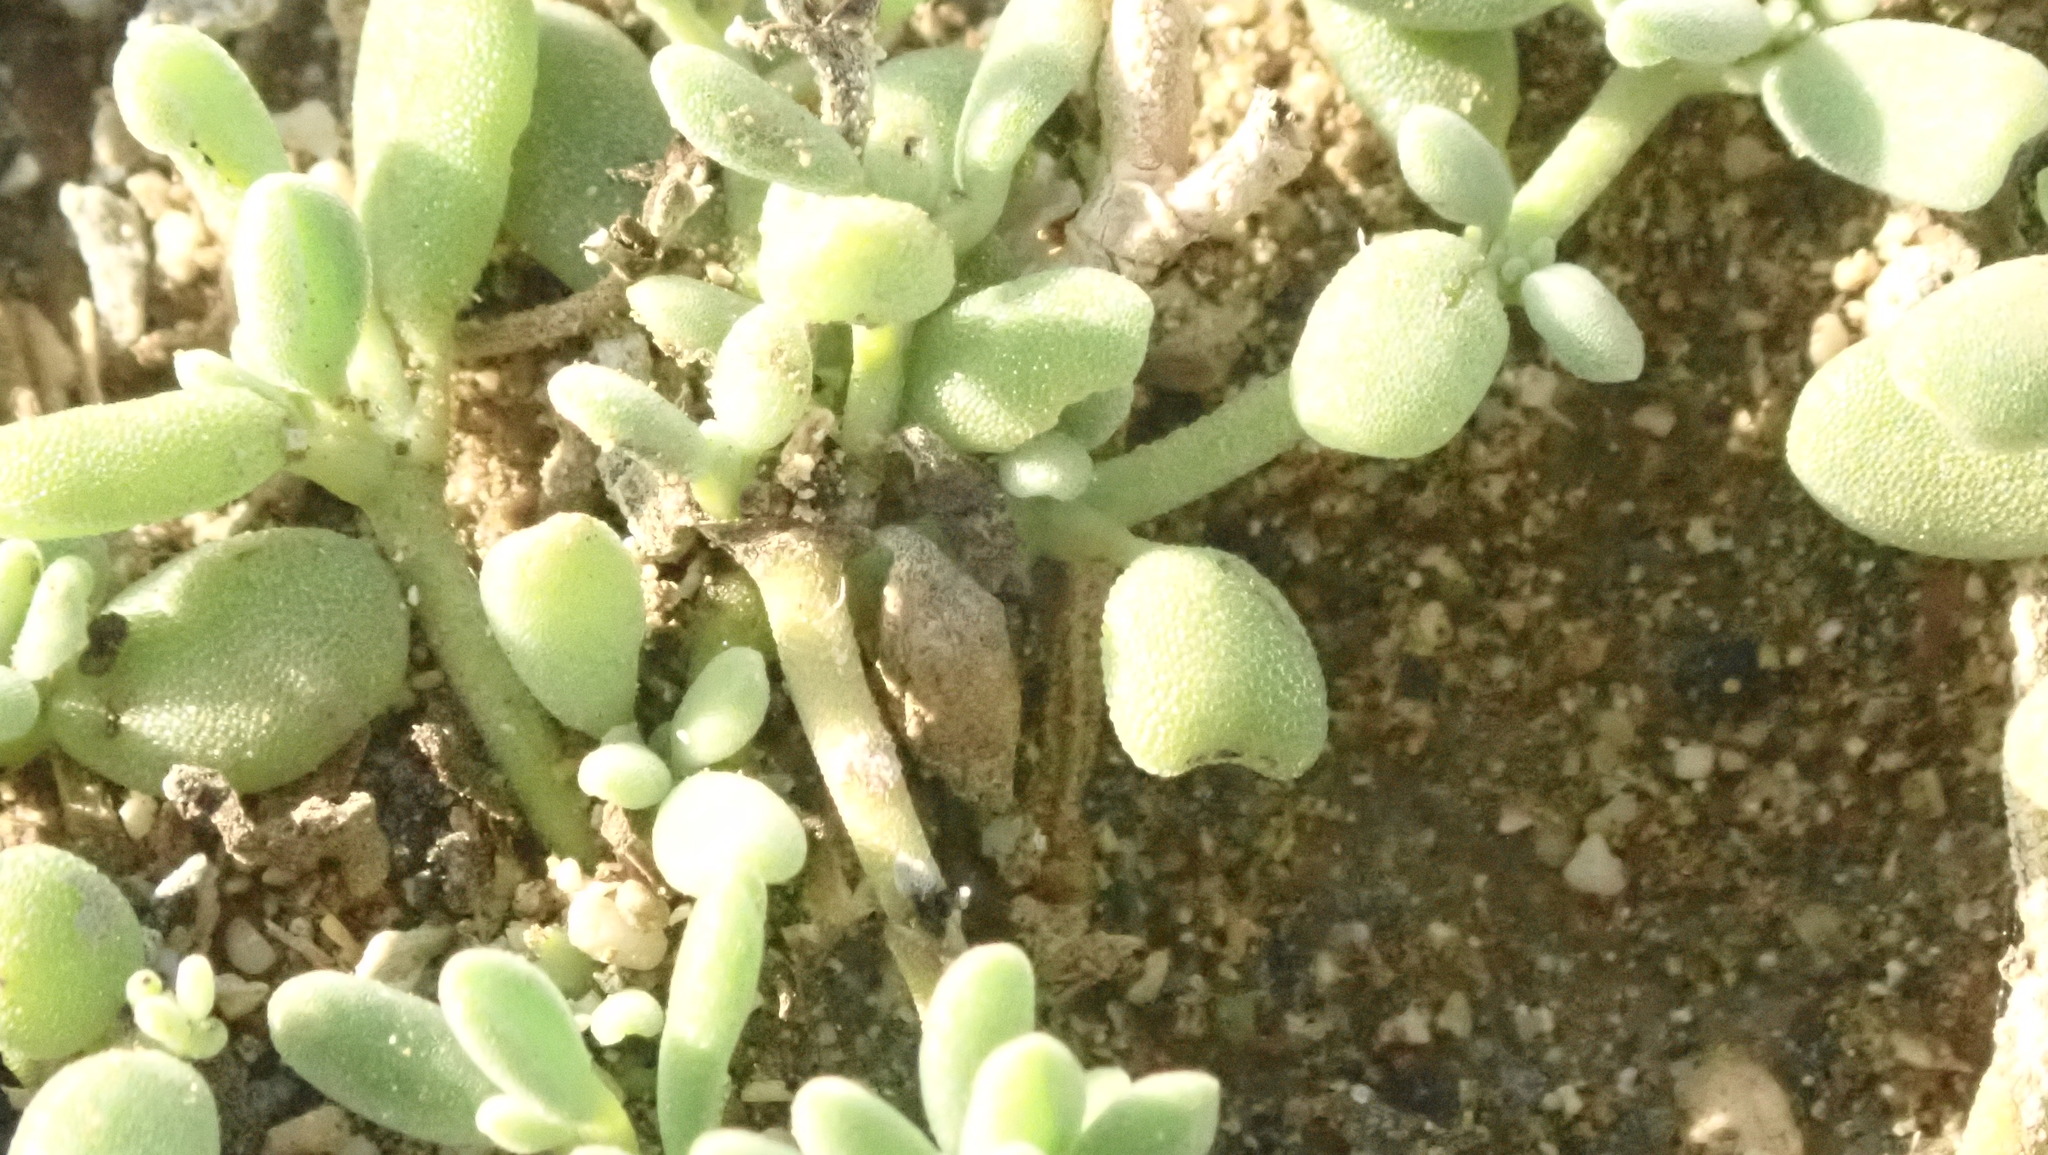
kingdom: Plantae
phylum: Tracheophyta
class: Magnoliopsida
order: Caryophyllales
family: Aizoaceae
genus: Sesuvium
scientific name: Sesuvium portulacastrum
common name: Sea-purslane
